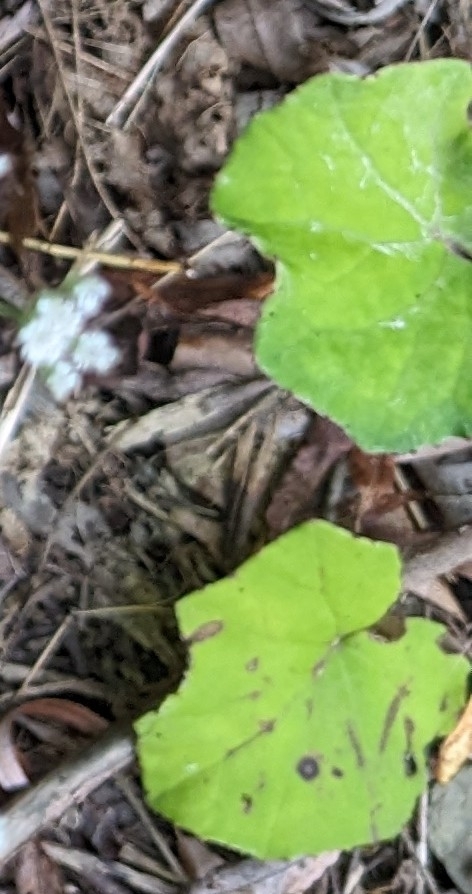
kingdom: Plantae
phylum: Tracheophyta
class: Magnoliopsida
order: Asterales
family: Asteraceae
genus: Tussilago
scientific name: Tussilago farfara
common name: Coltsfoot
